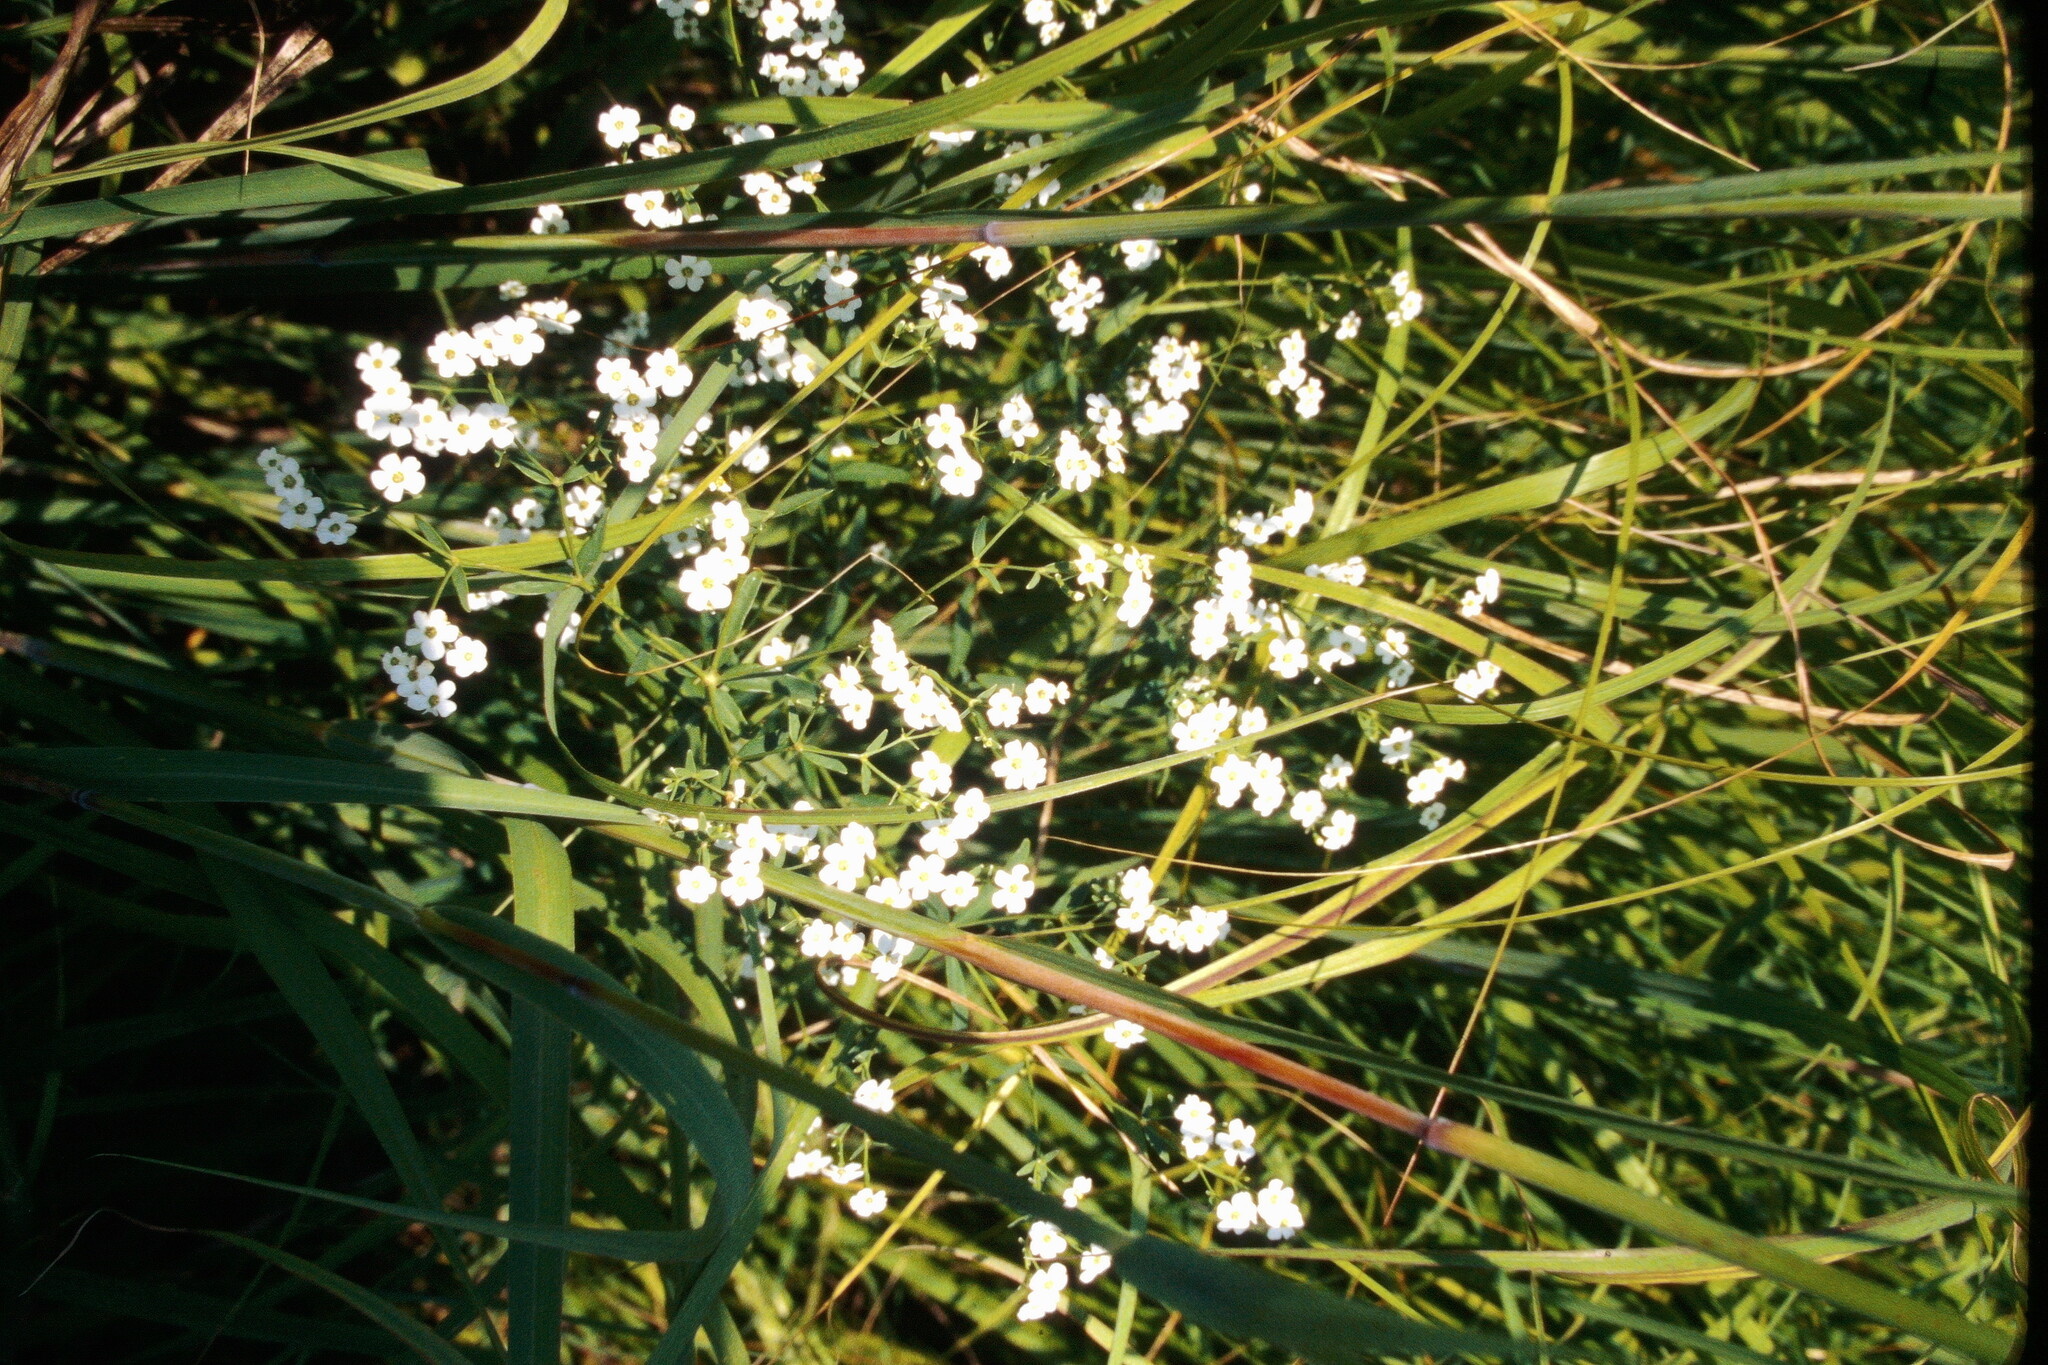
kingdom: Plantae
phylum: Tracheophyta
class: Magnoliopsida
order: Malpighiales
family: Euphorbiaceae
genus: Euphorbia
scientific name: Euphorbia corollata
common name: Flowering spurge
